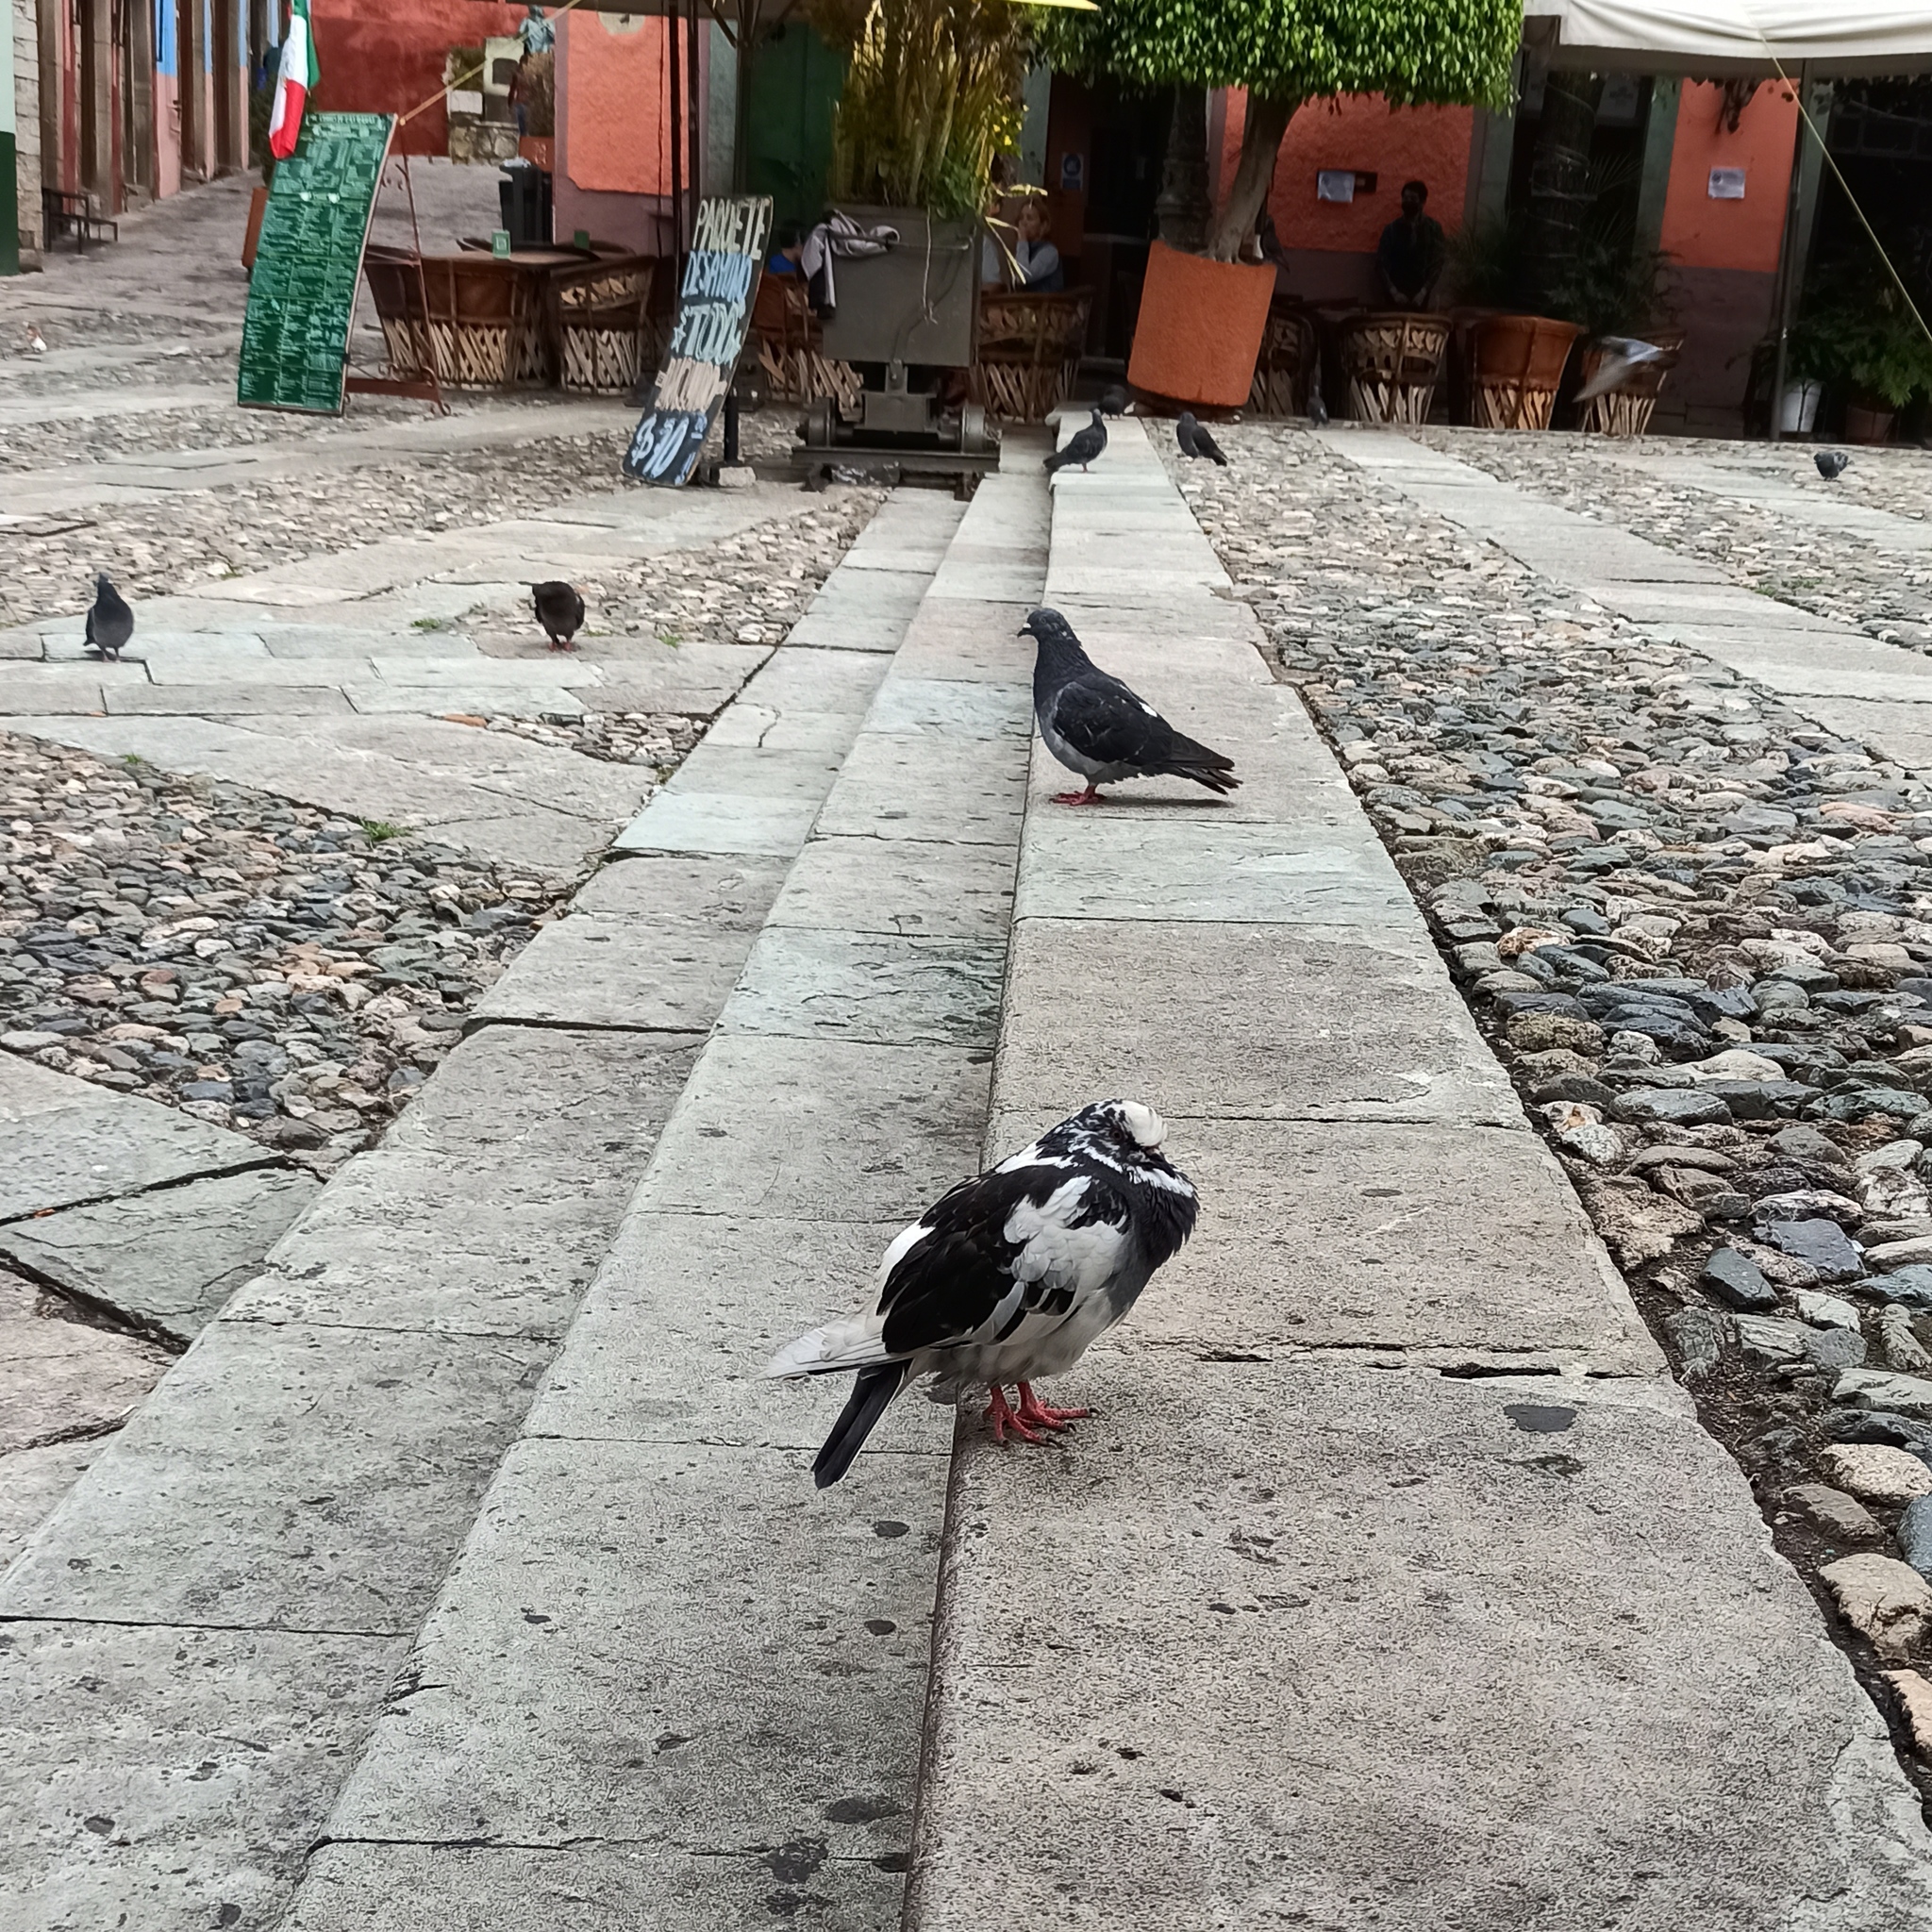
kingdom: Animalia
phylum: Chordata
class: Aves
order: Columbiformes
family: Columbidae
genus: Columba
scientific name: Columba livia
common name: Rock pigeon
